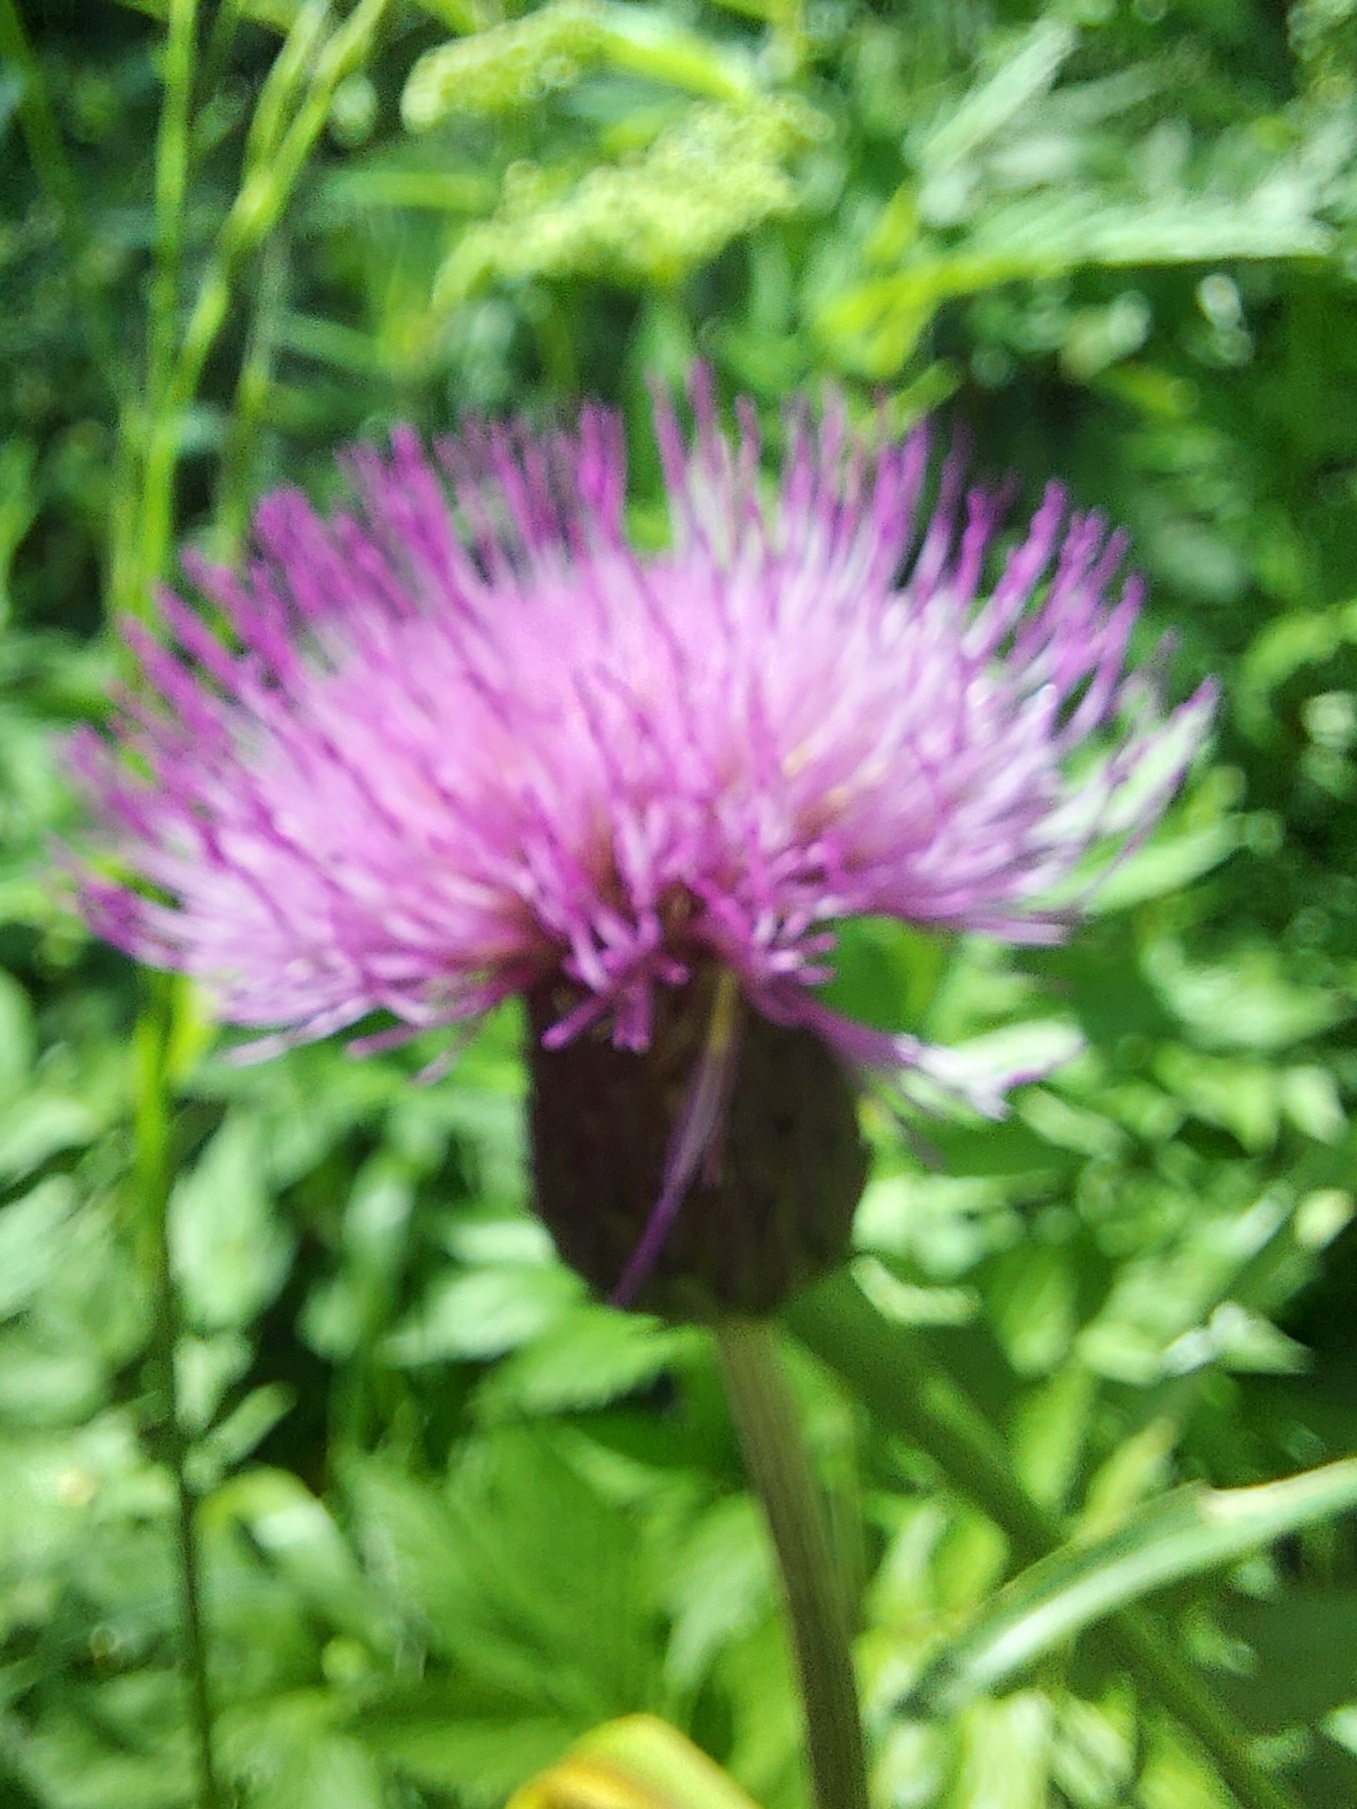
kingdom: Plantae
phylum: Tracheophyta
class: Magnoliopsida
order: Asterales
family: Asteraceae
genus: Cirsium
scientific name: Cirsium heterophyllum
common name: Melancholy thistle
